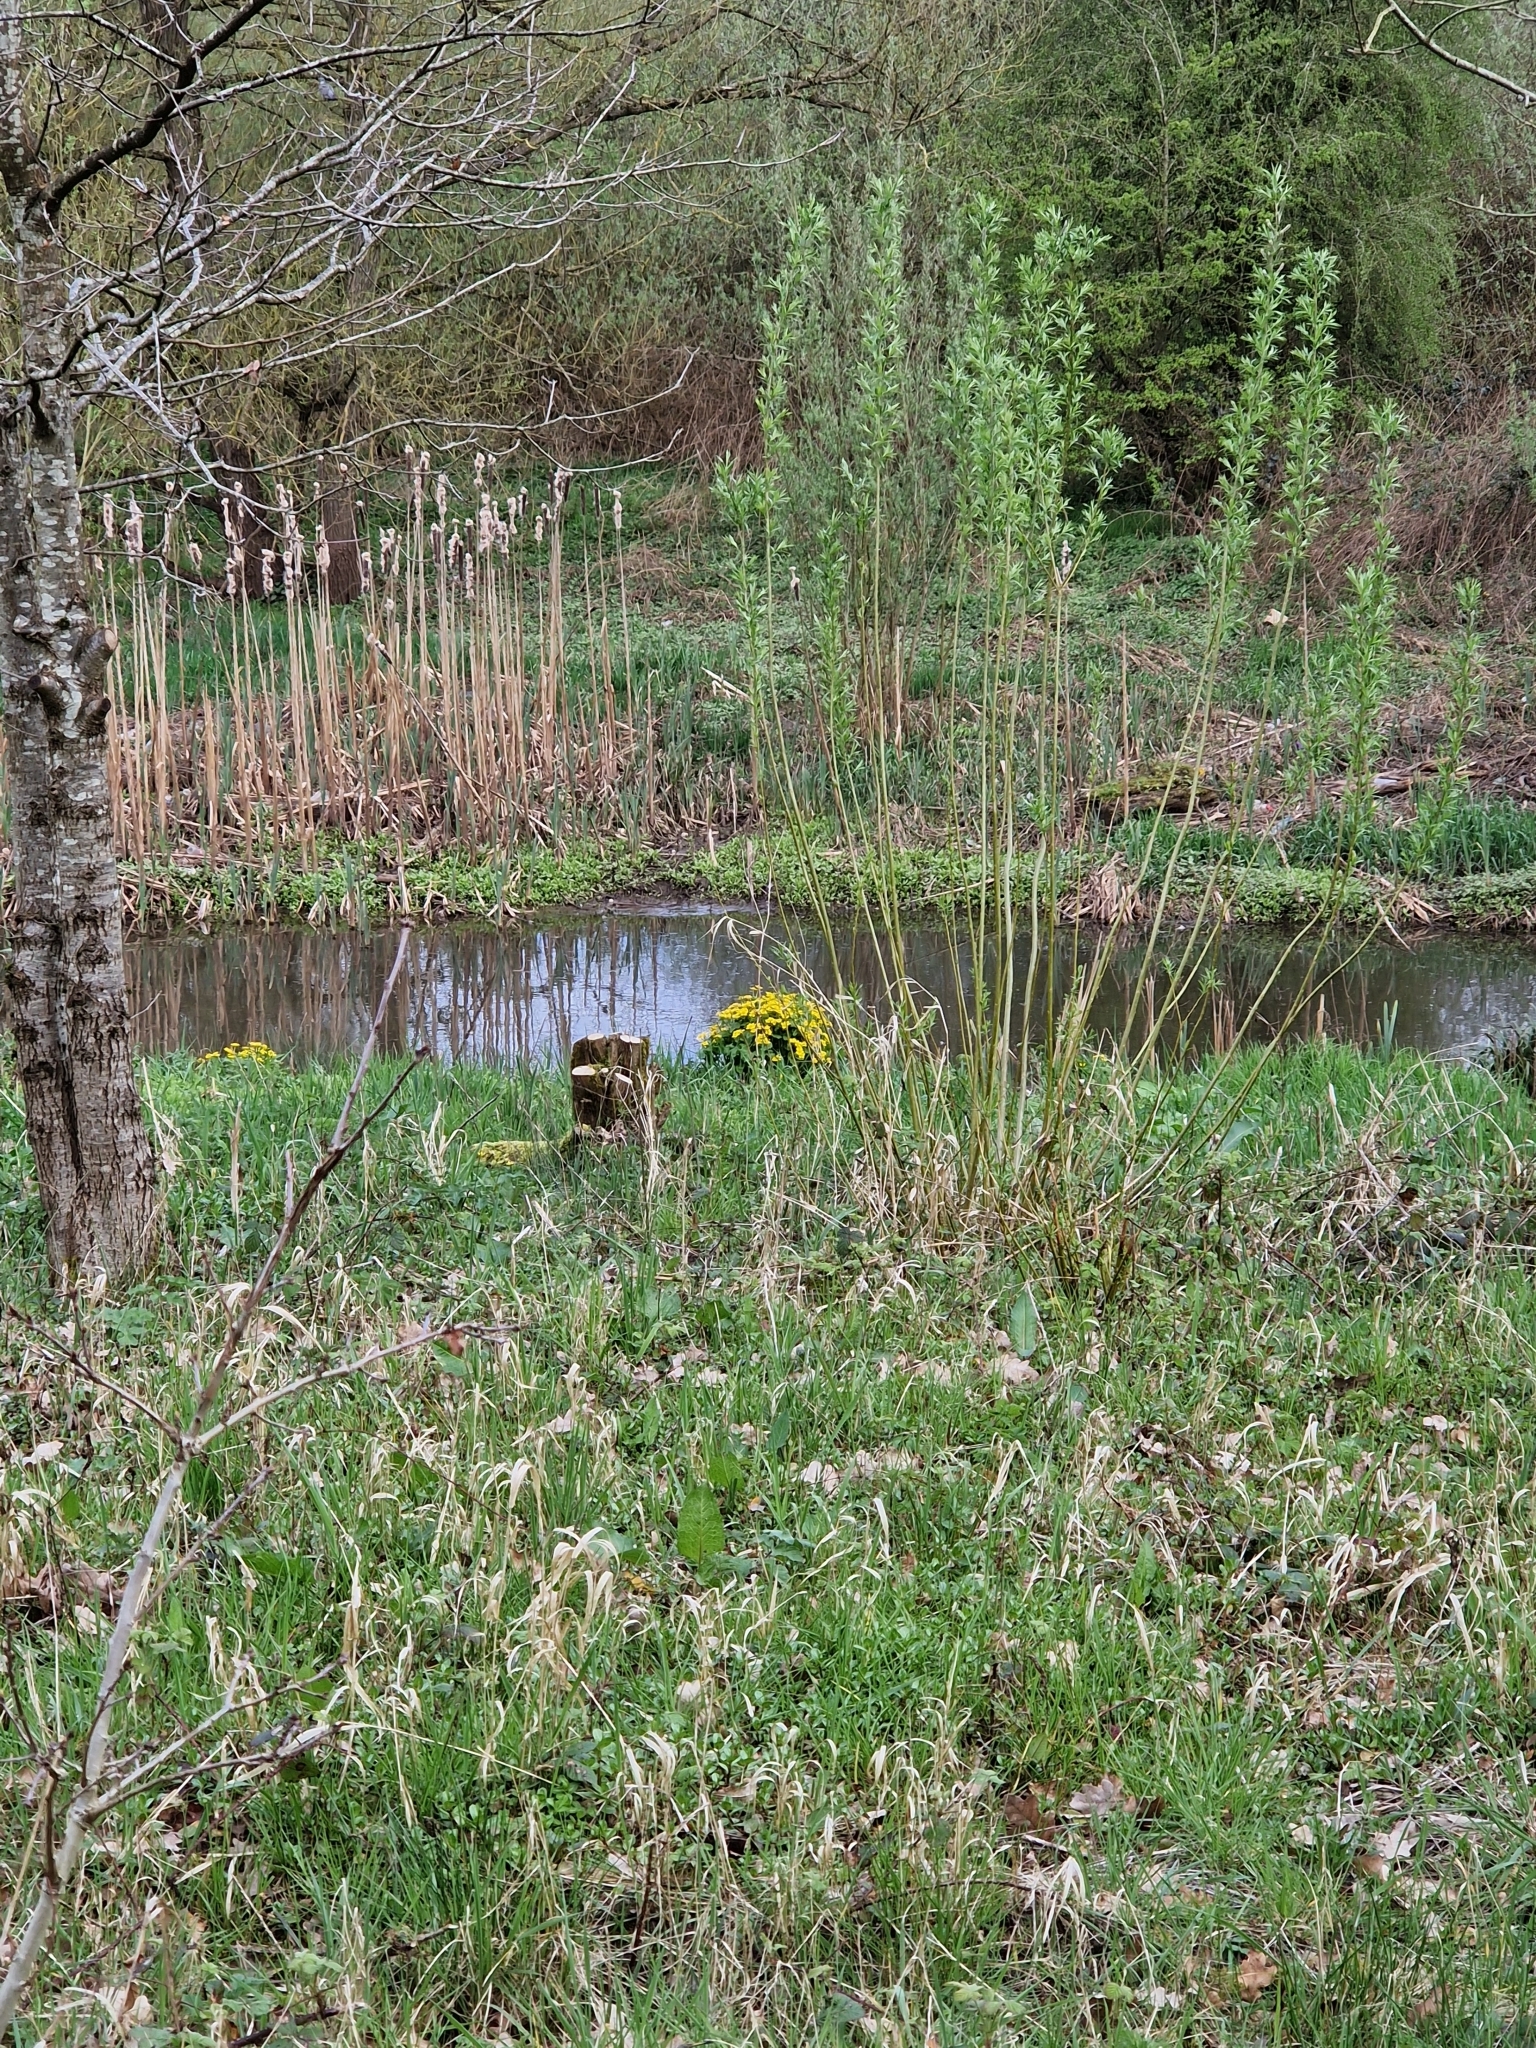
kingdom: Plantae
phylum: Tracheophyta
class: Magnoliopsida
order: Ranunculales
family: Ranunculaceae
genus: Caltha
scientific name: Caltha palustris
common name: Marsh marigold
